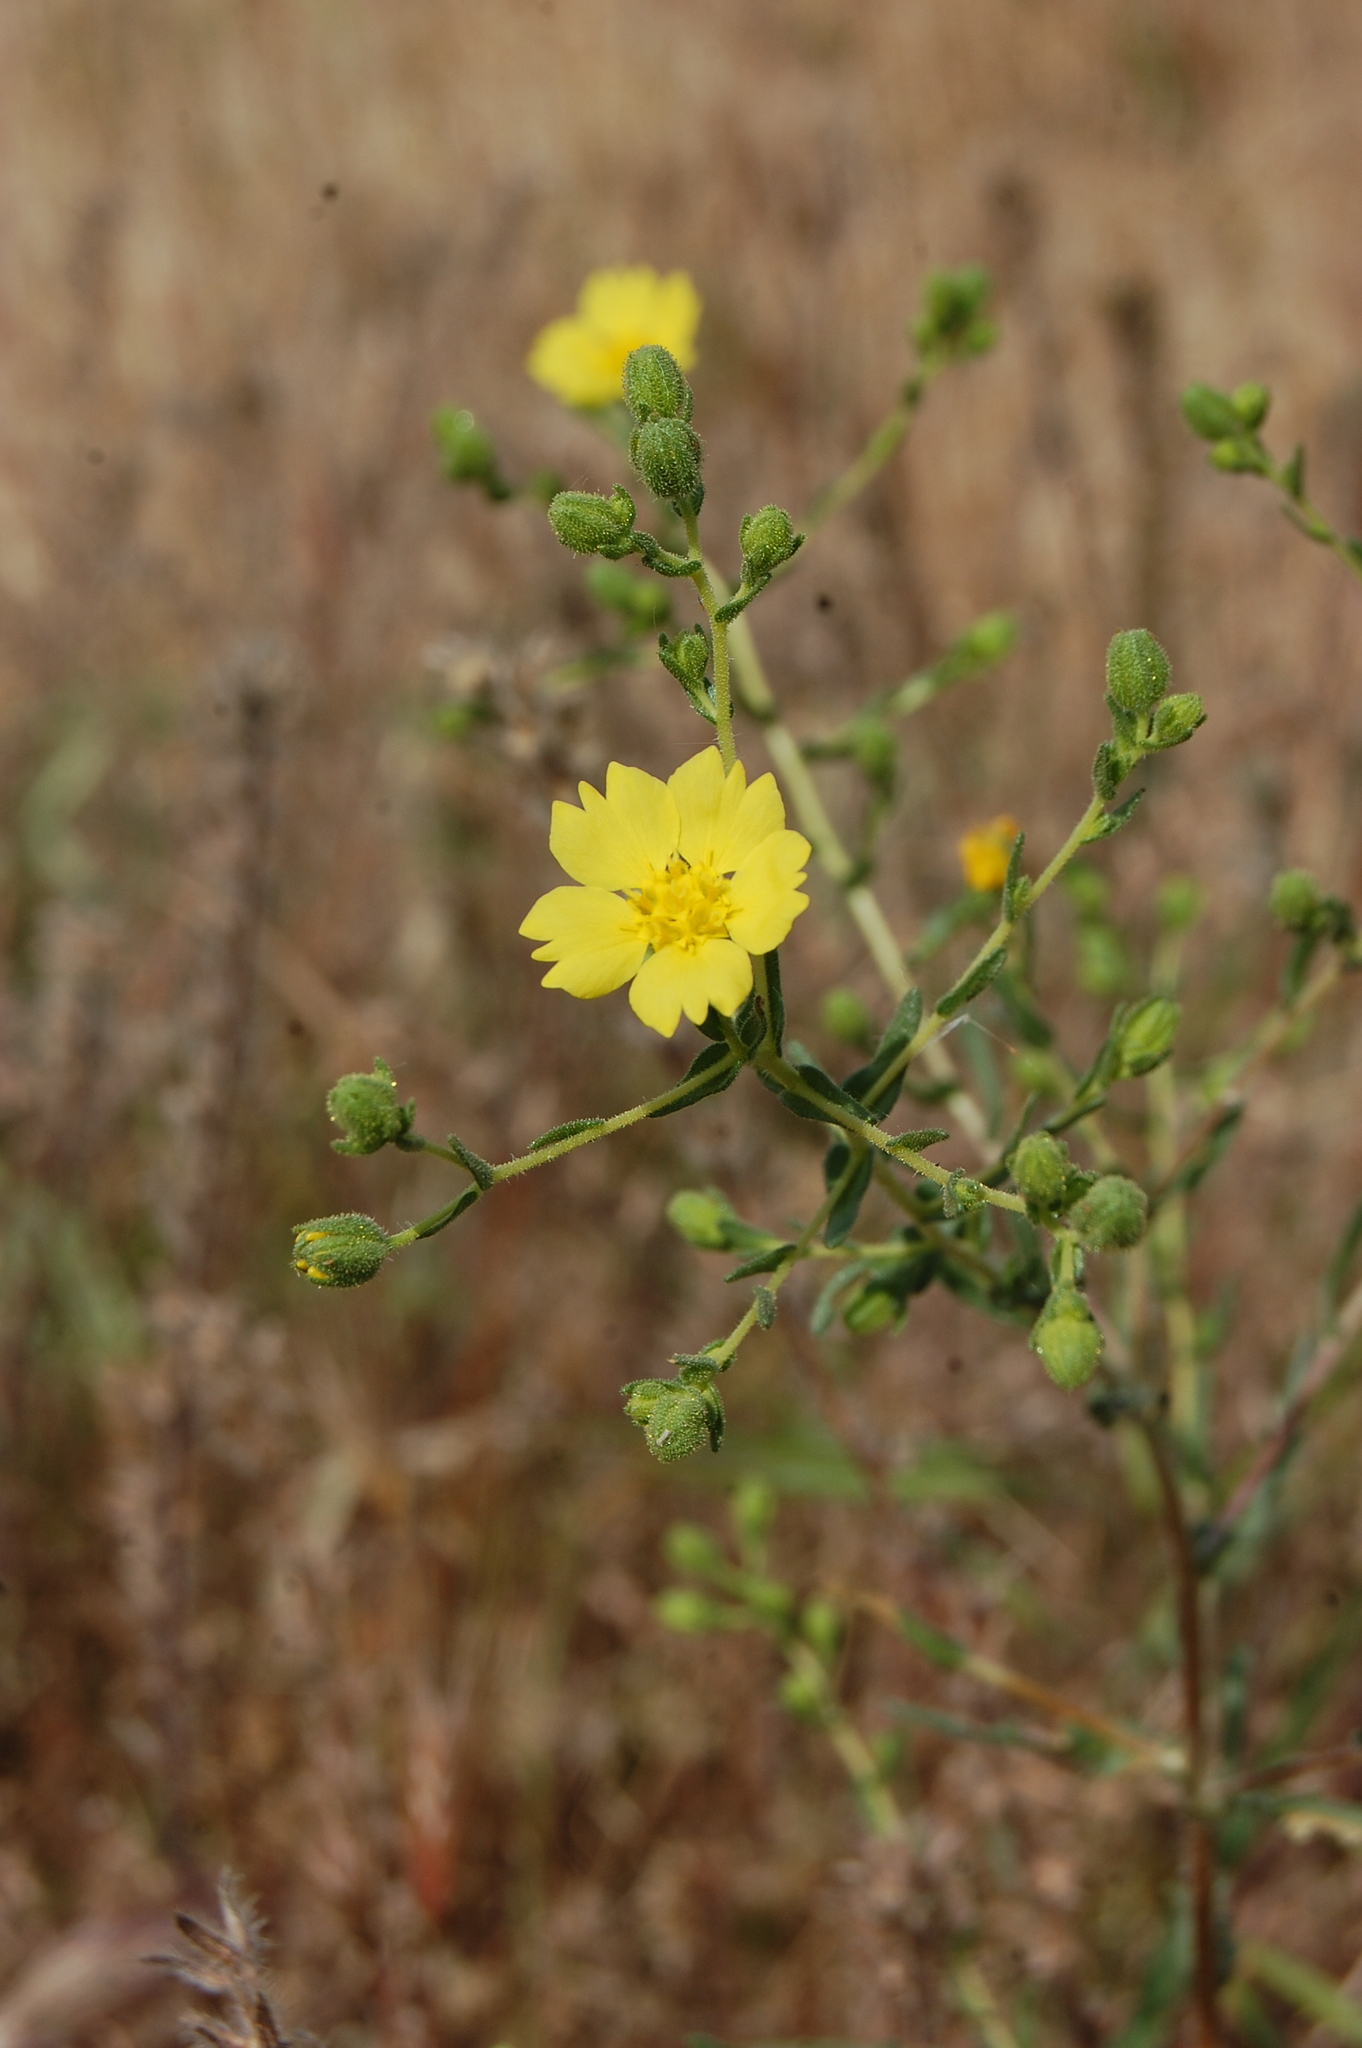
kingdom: Plantae
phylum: Tracheophyta
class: Magnoliopsida
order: Asterales
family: Asteraceae
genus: Deinandra
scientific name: Deinandra kelloggii
